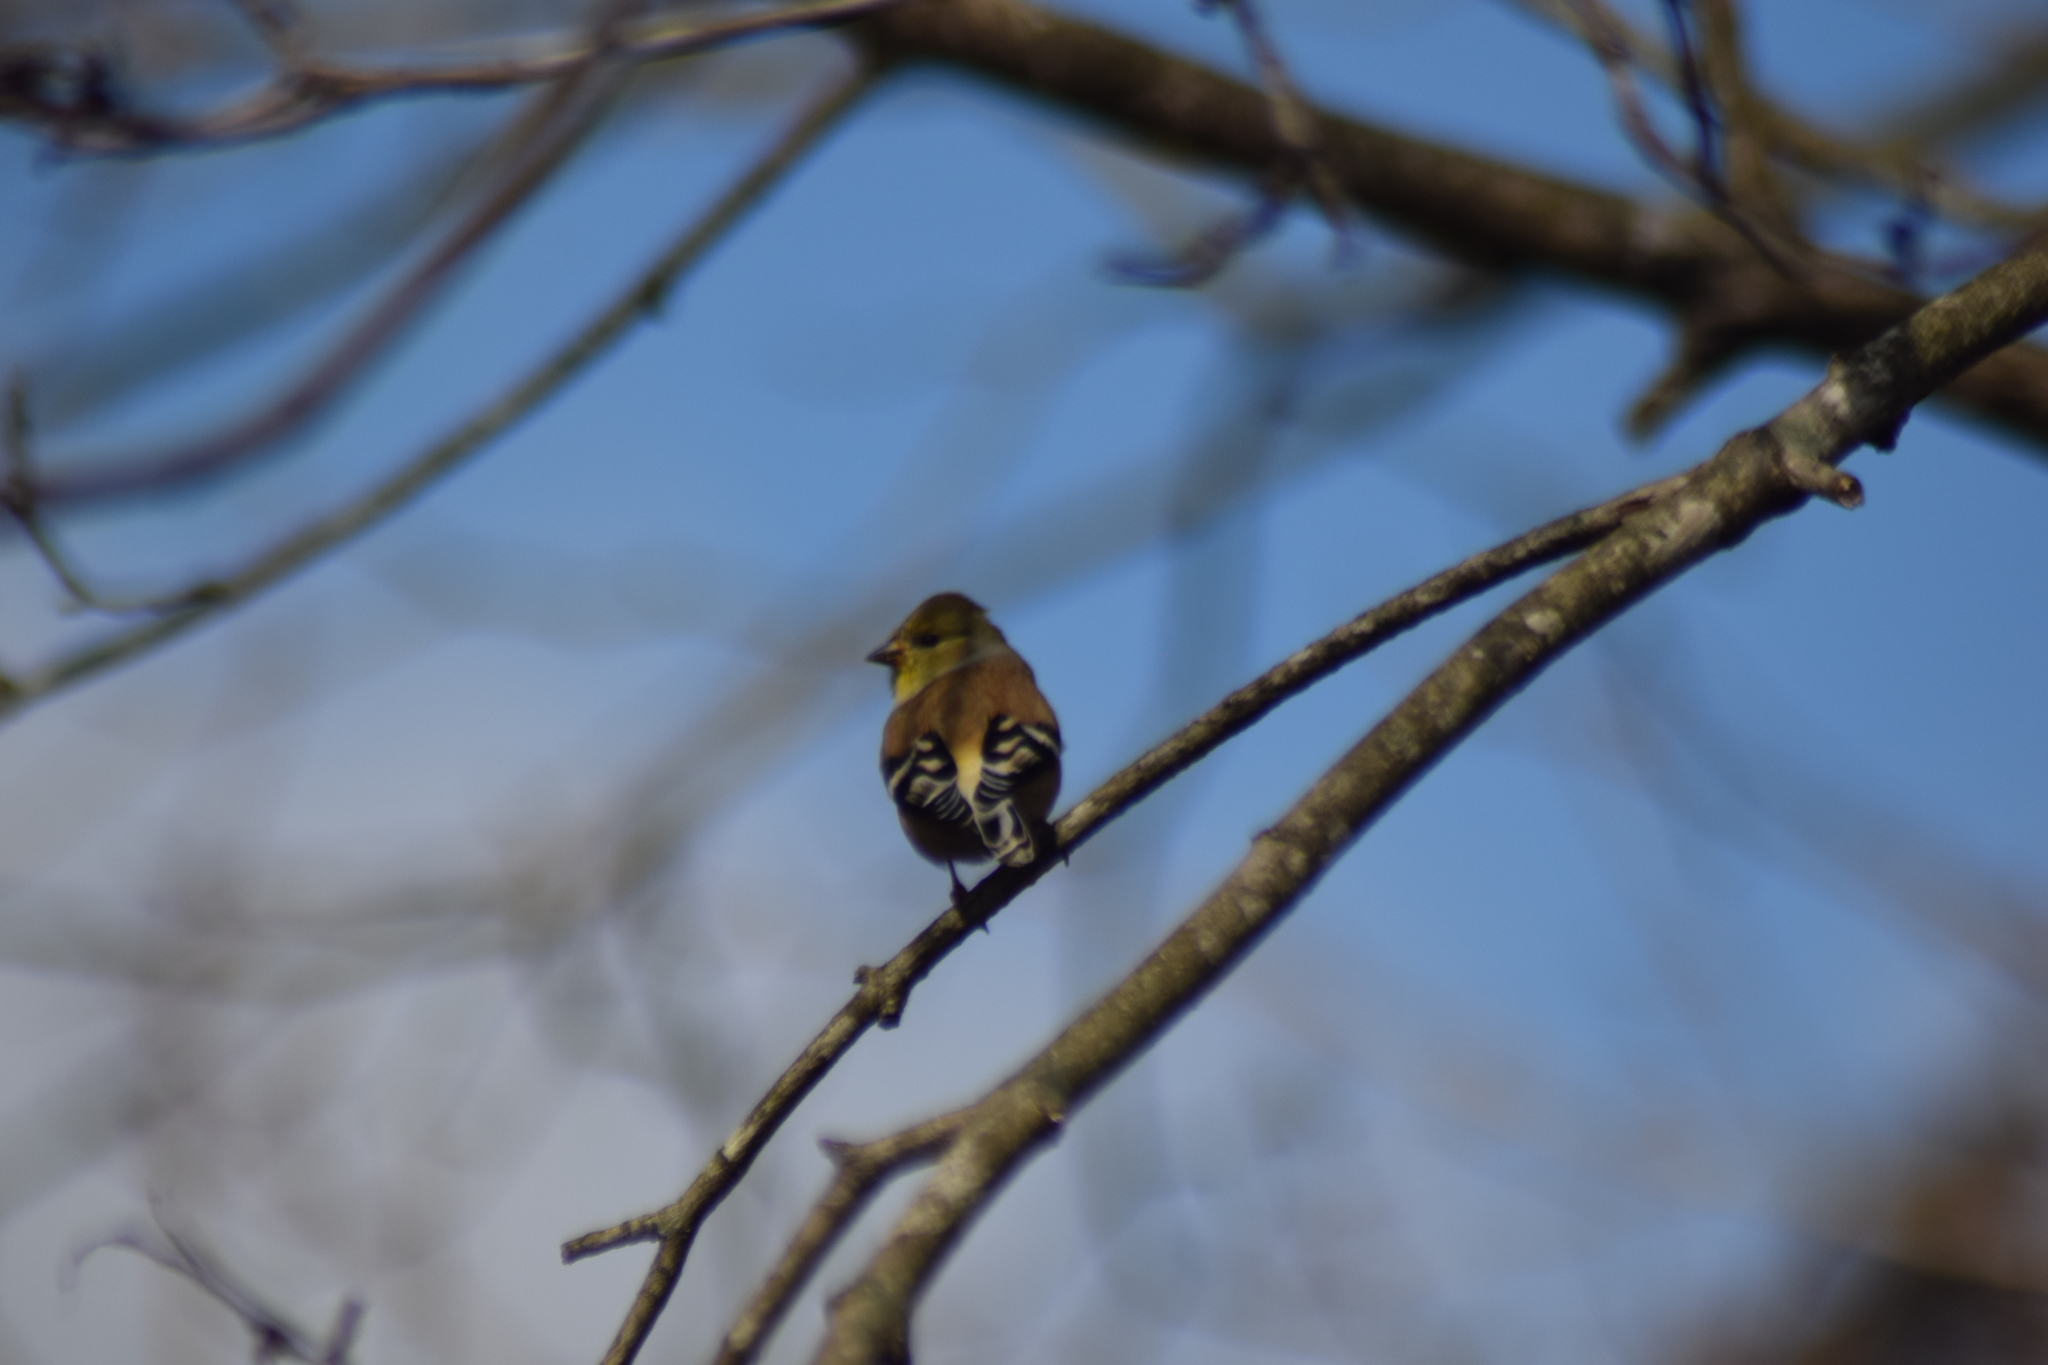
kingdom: Animalia
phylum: Chordata
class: Aves
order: Passeriformes
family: Fringillidae
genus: Spinus
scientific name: Spinus tristis
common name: American goldfinch
